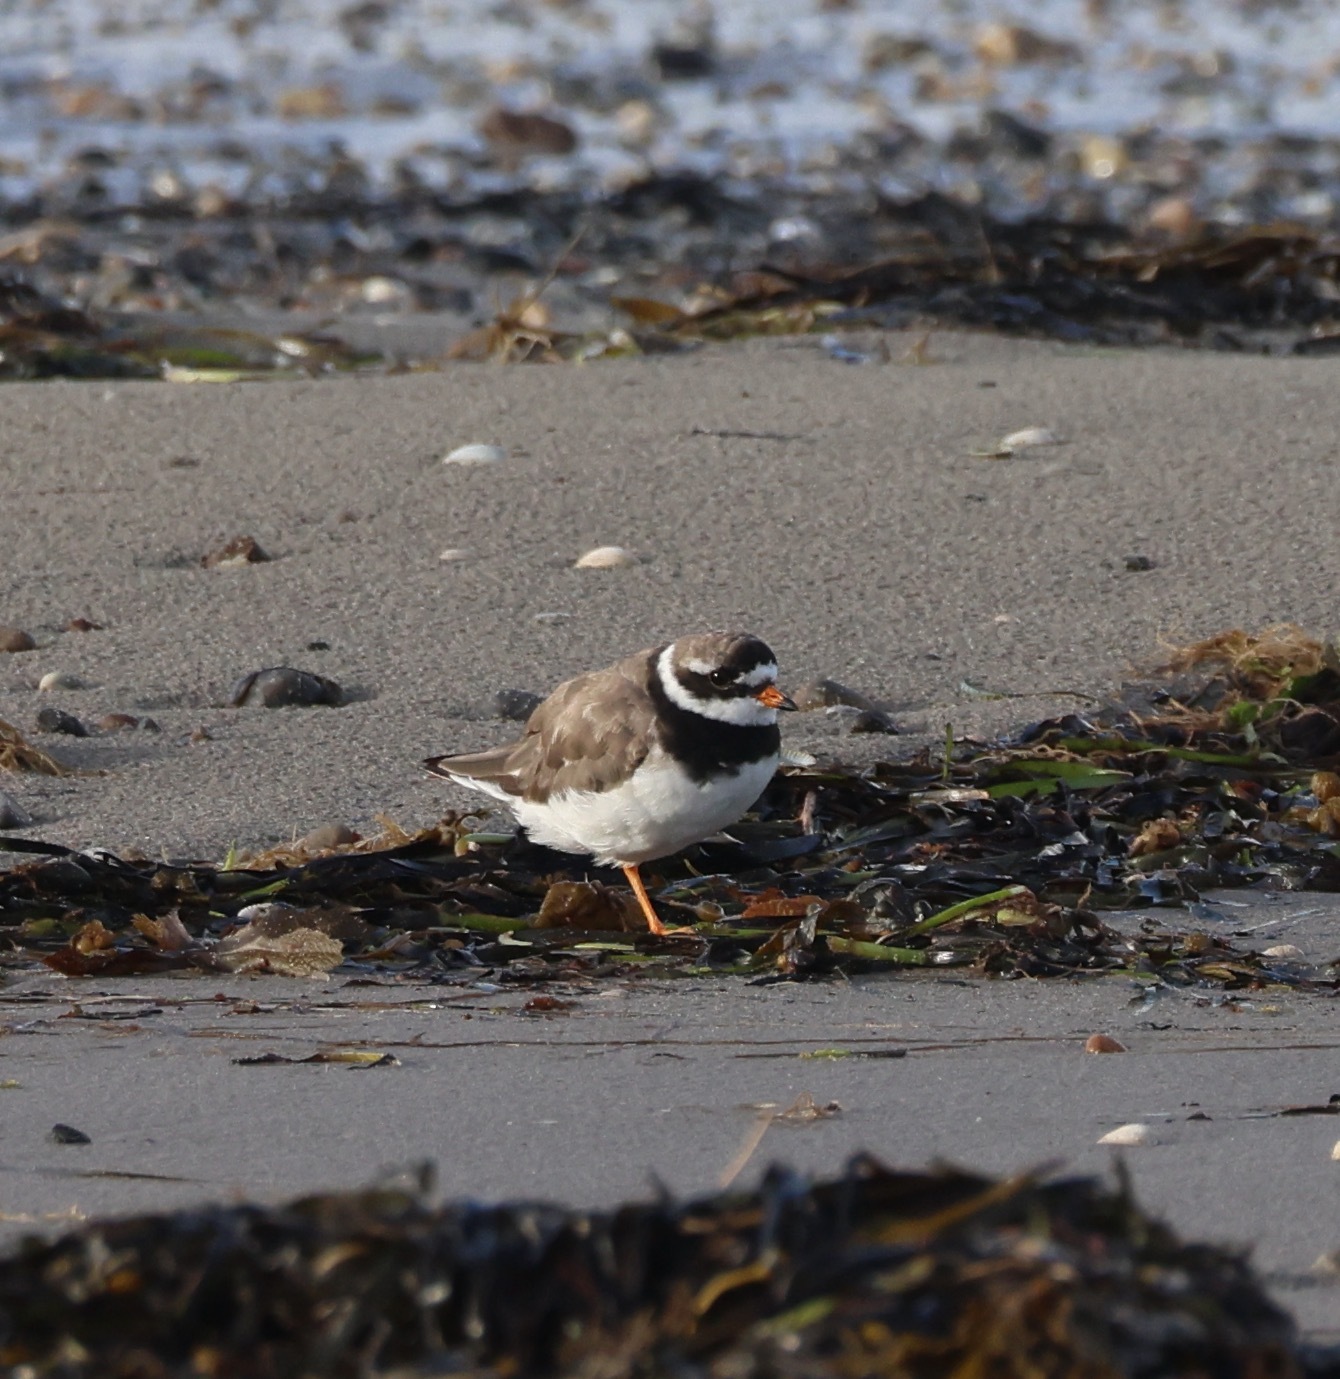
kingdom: Animalia
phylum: Chordata
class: Aves
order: Charadriiformes
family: Charadriidae
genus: Charadrius
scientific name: Charadrius hiaticula
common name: Common ringed plover
